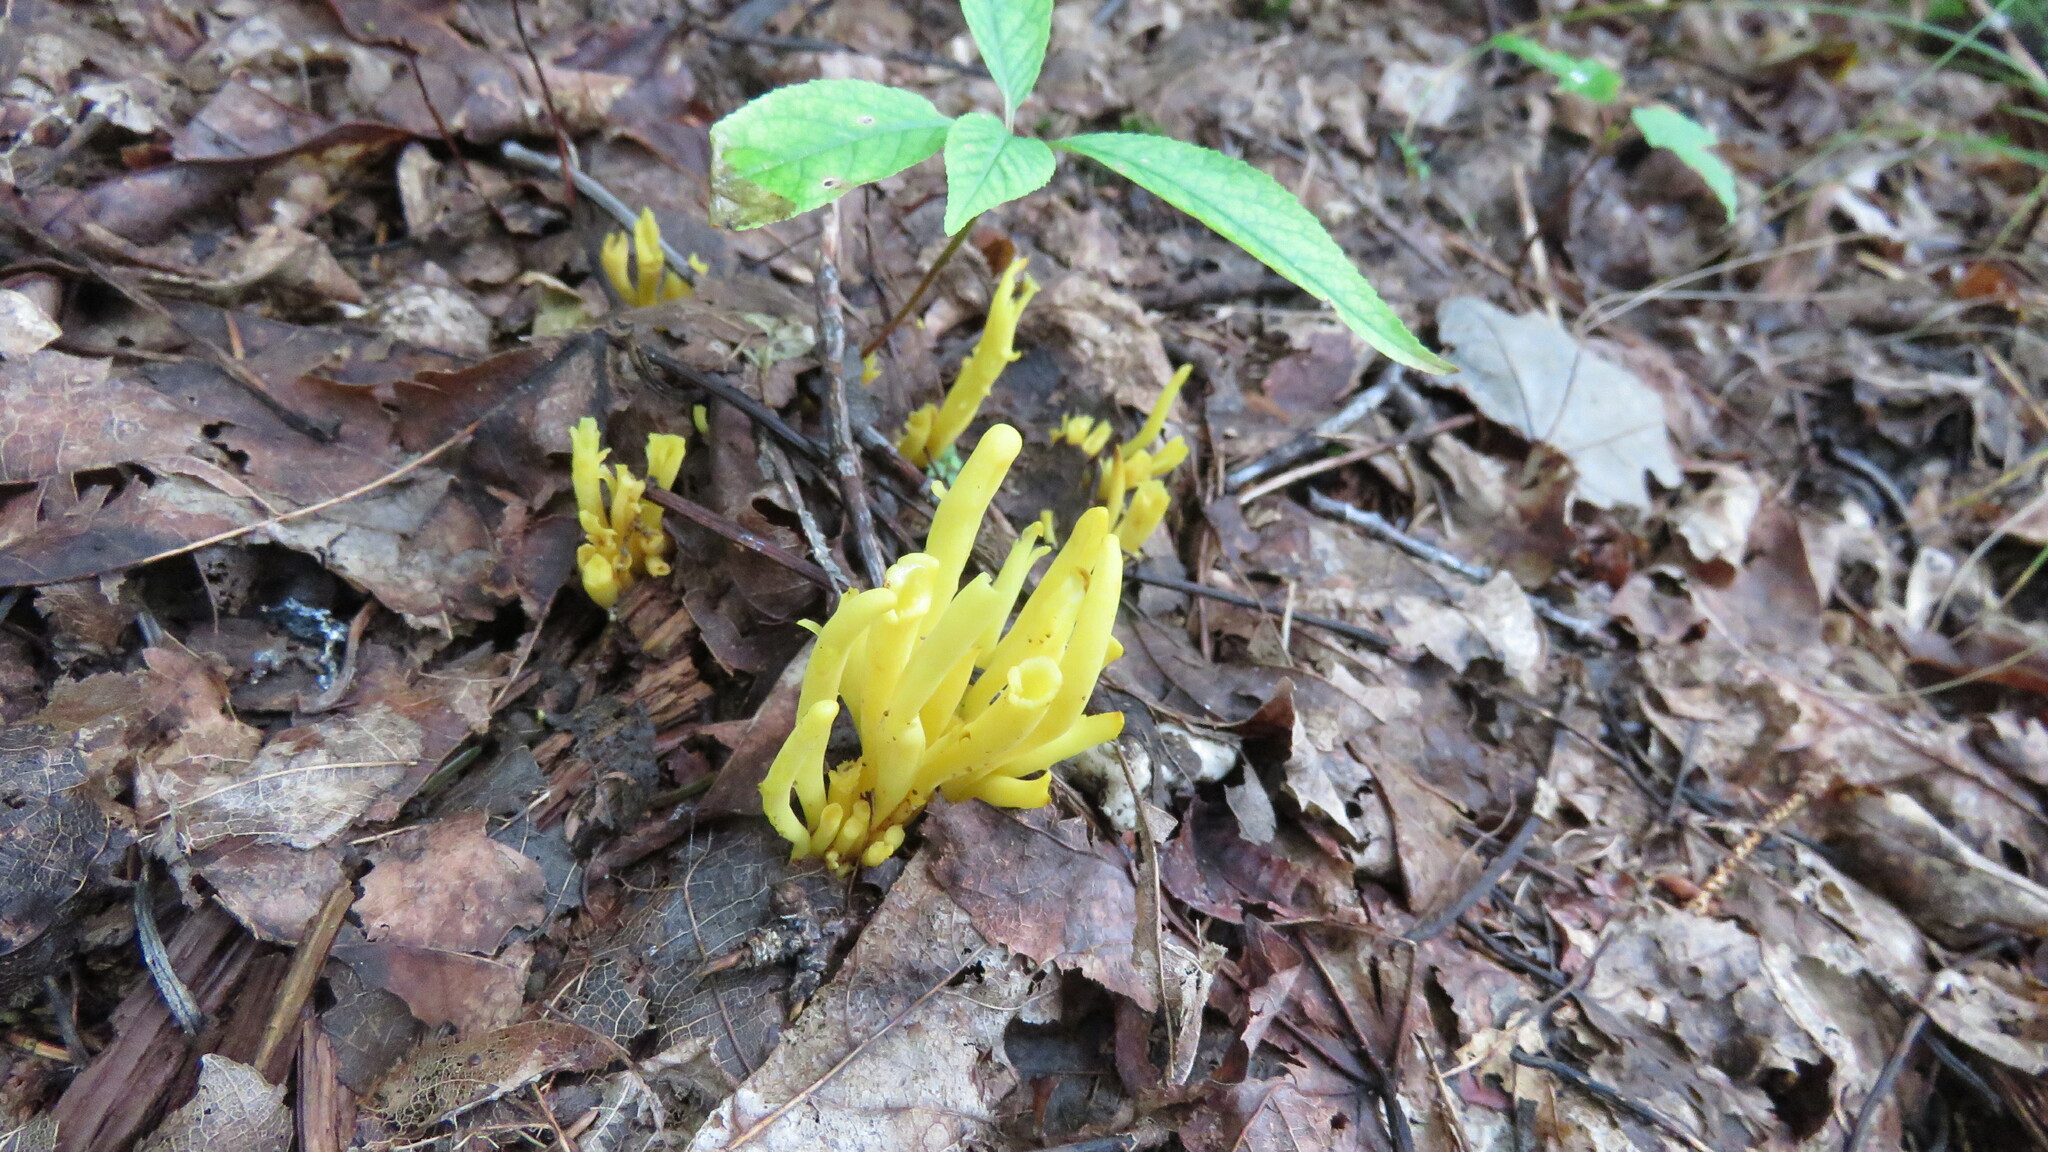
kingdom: Fungi
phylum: Basidiomycota
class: Agaricomycetes
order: Agaricales
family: Clavariaceae
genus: Clavulinopsis
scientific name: Clavulinopsis fusiformis
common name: Golden spindles
